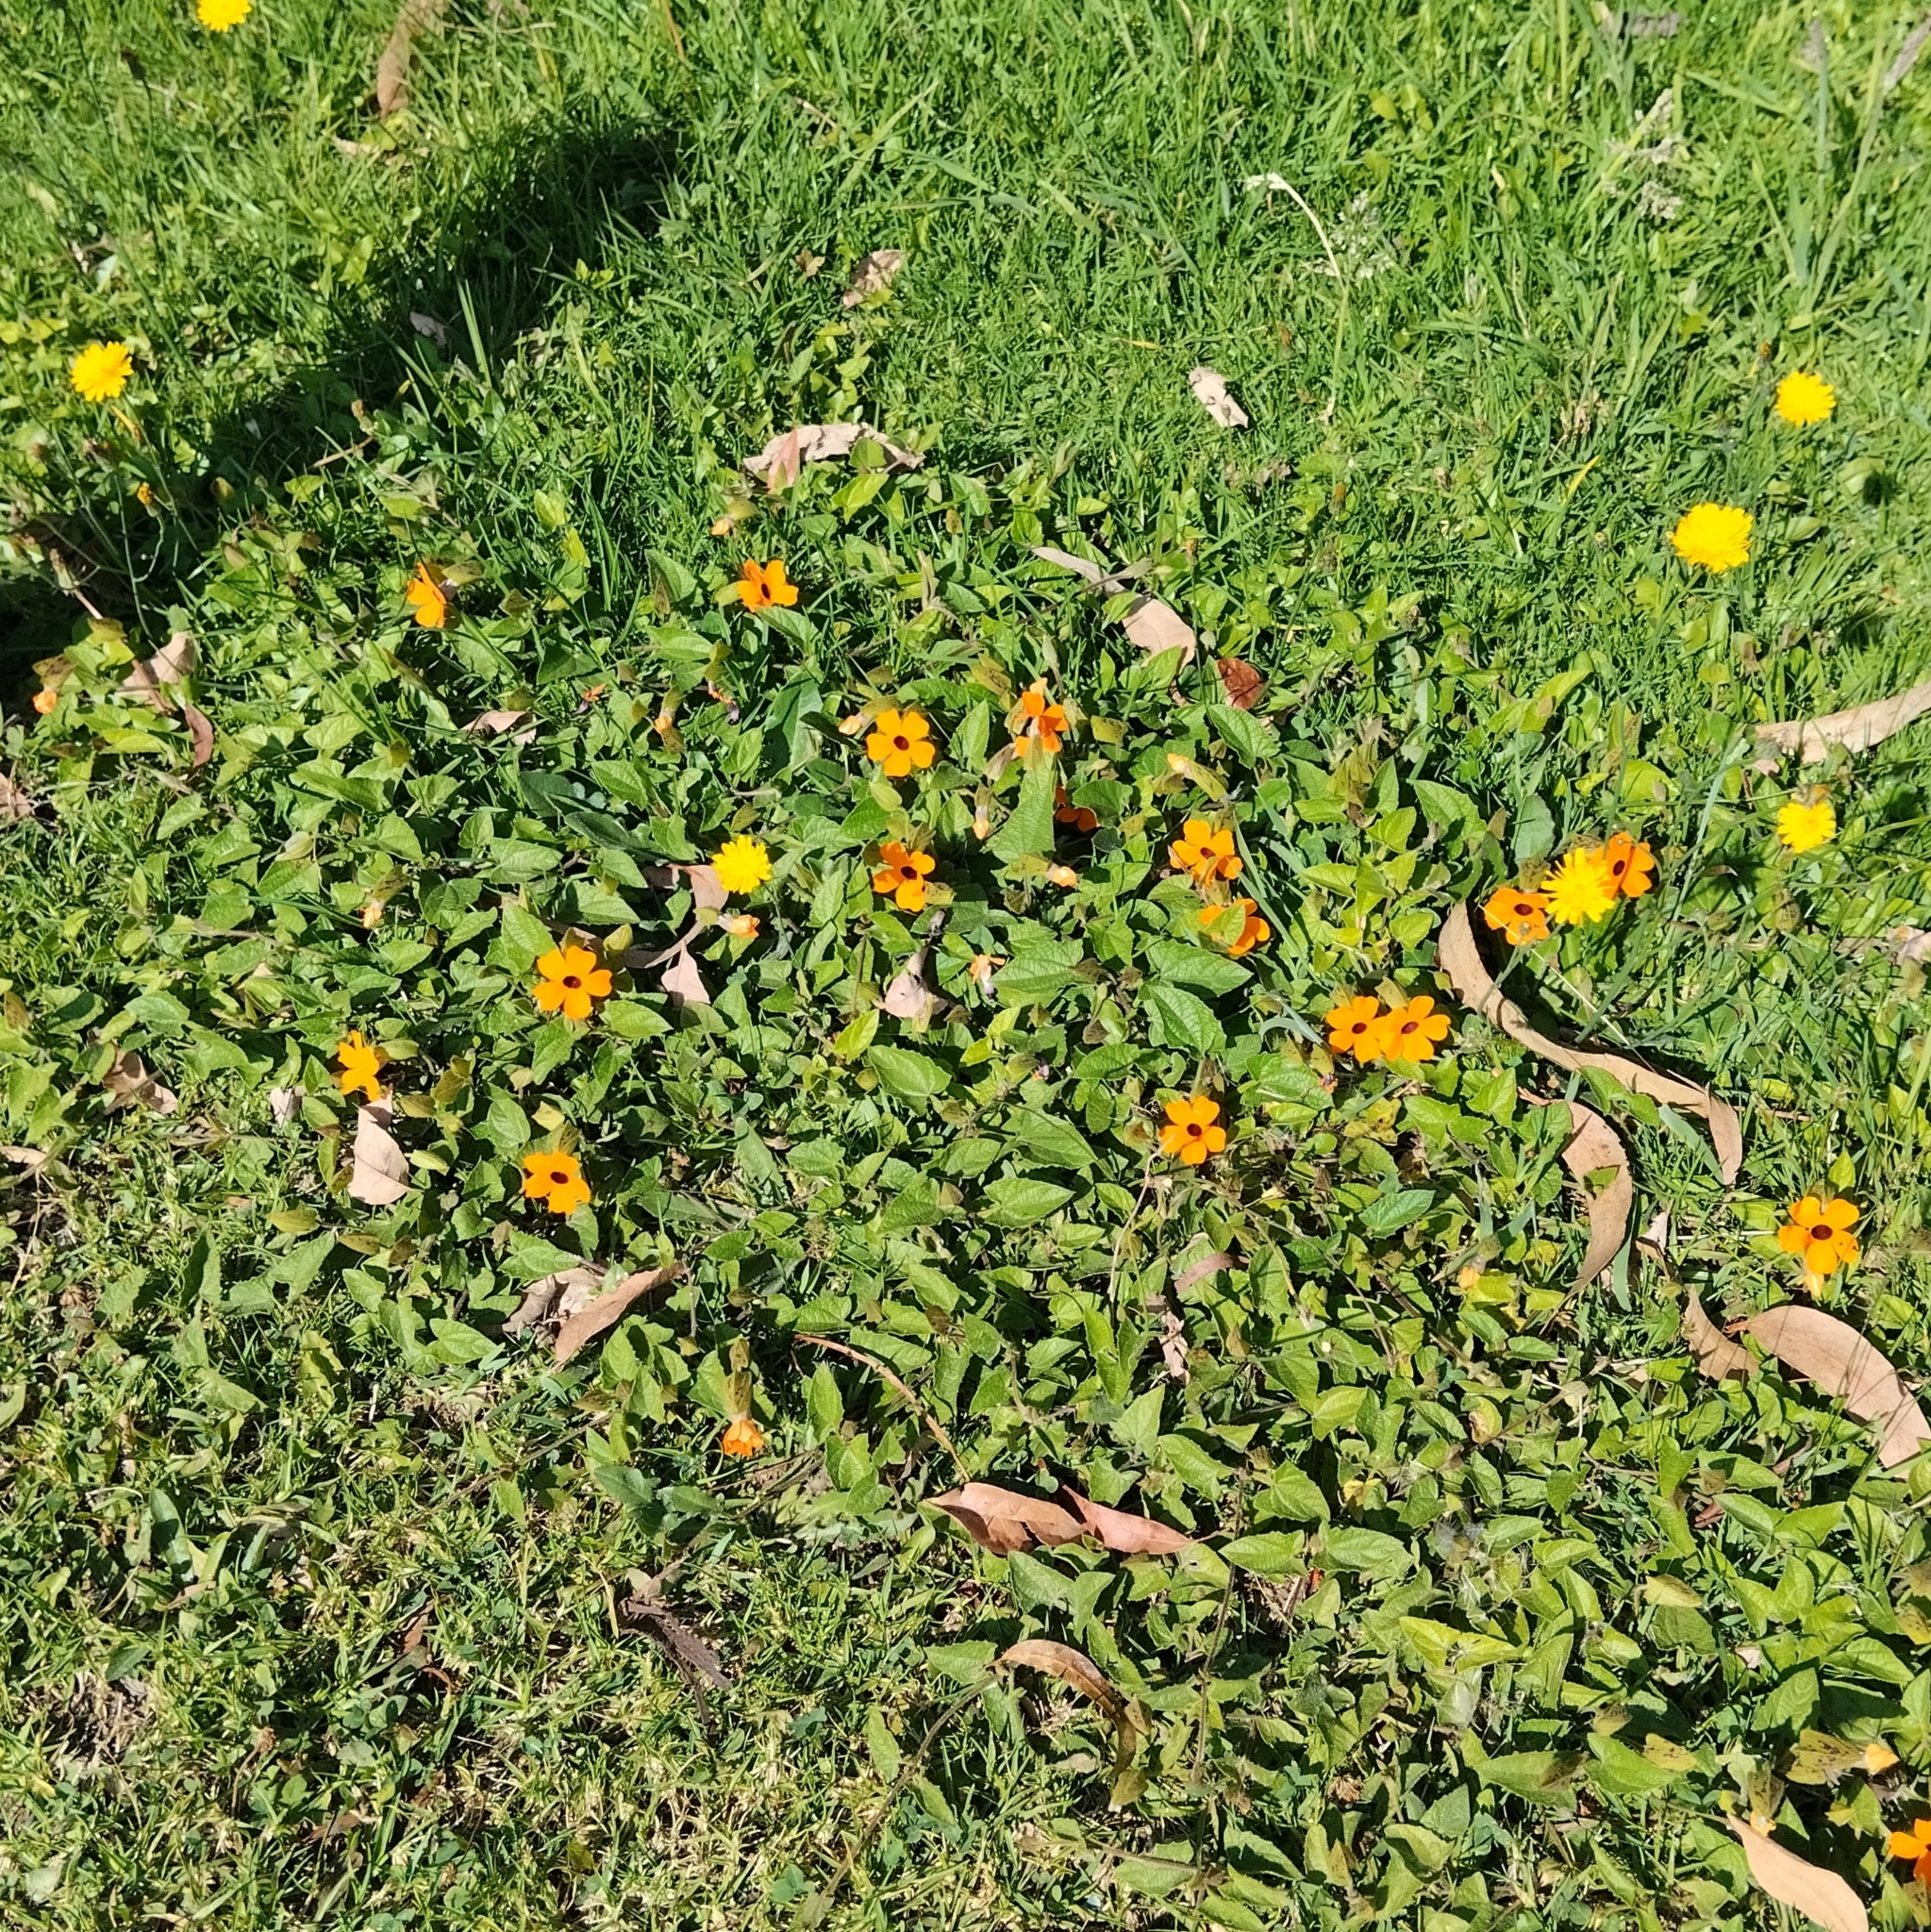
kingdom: Plantae
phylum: Tracheophyta
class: Magnoliopsida
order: Lamiales
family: Acanthaceae
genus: Thunbergia
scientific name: Thunbergia alata
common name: Blackeyed susan vine
